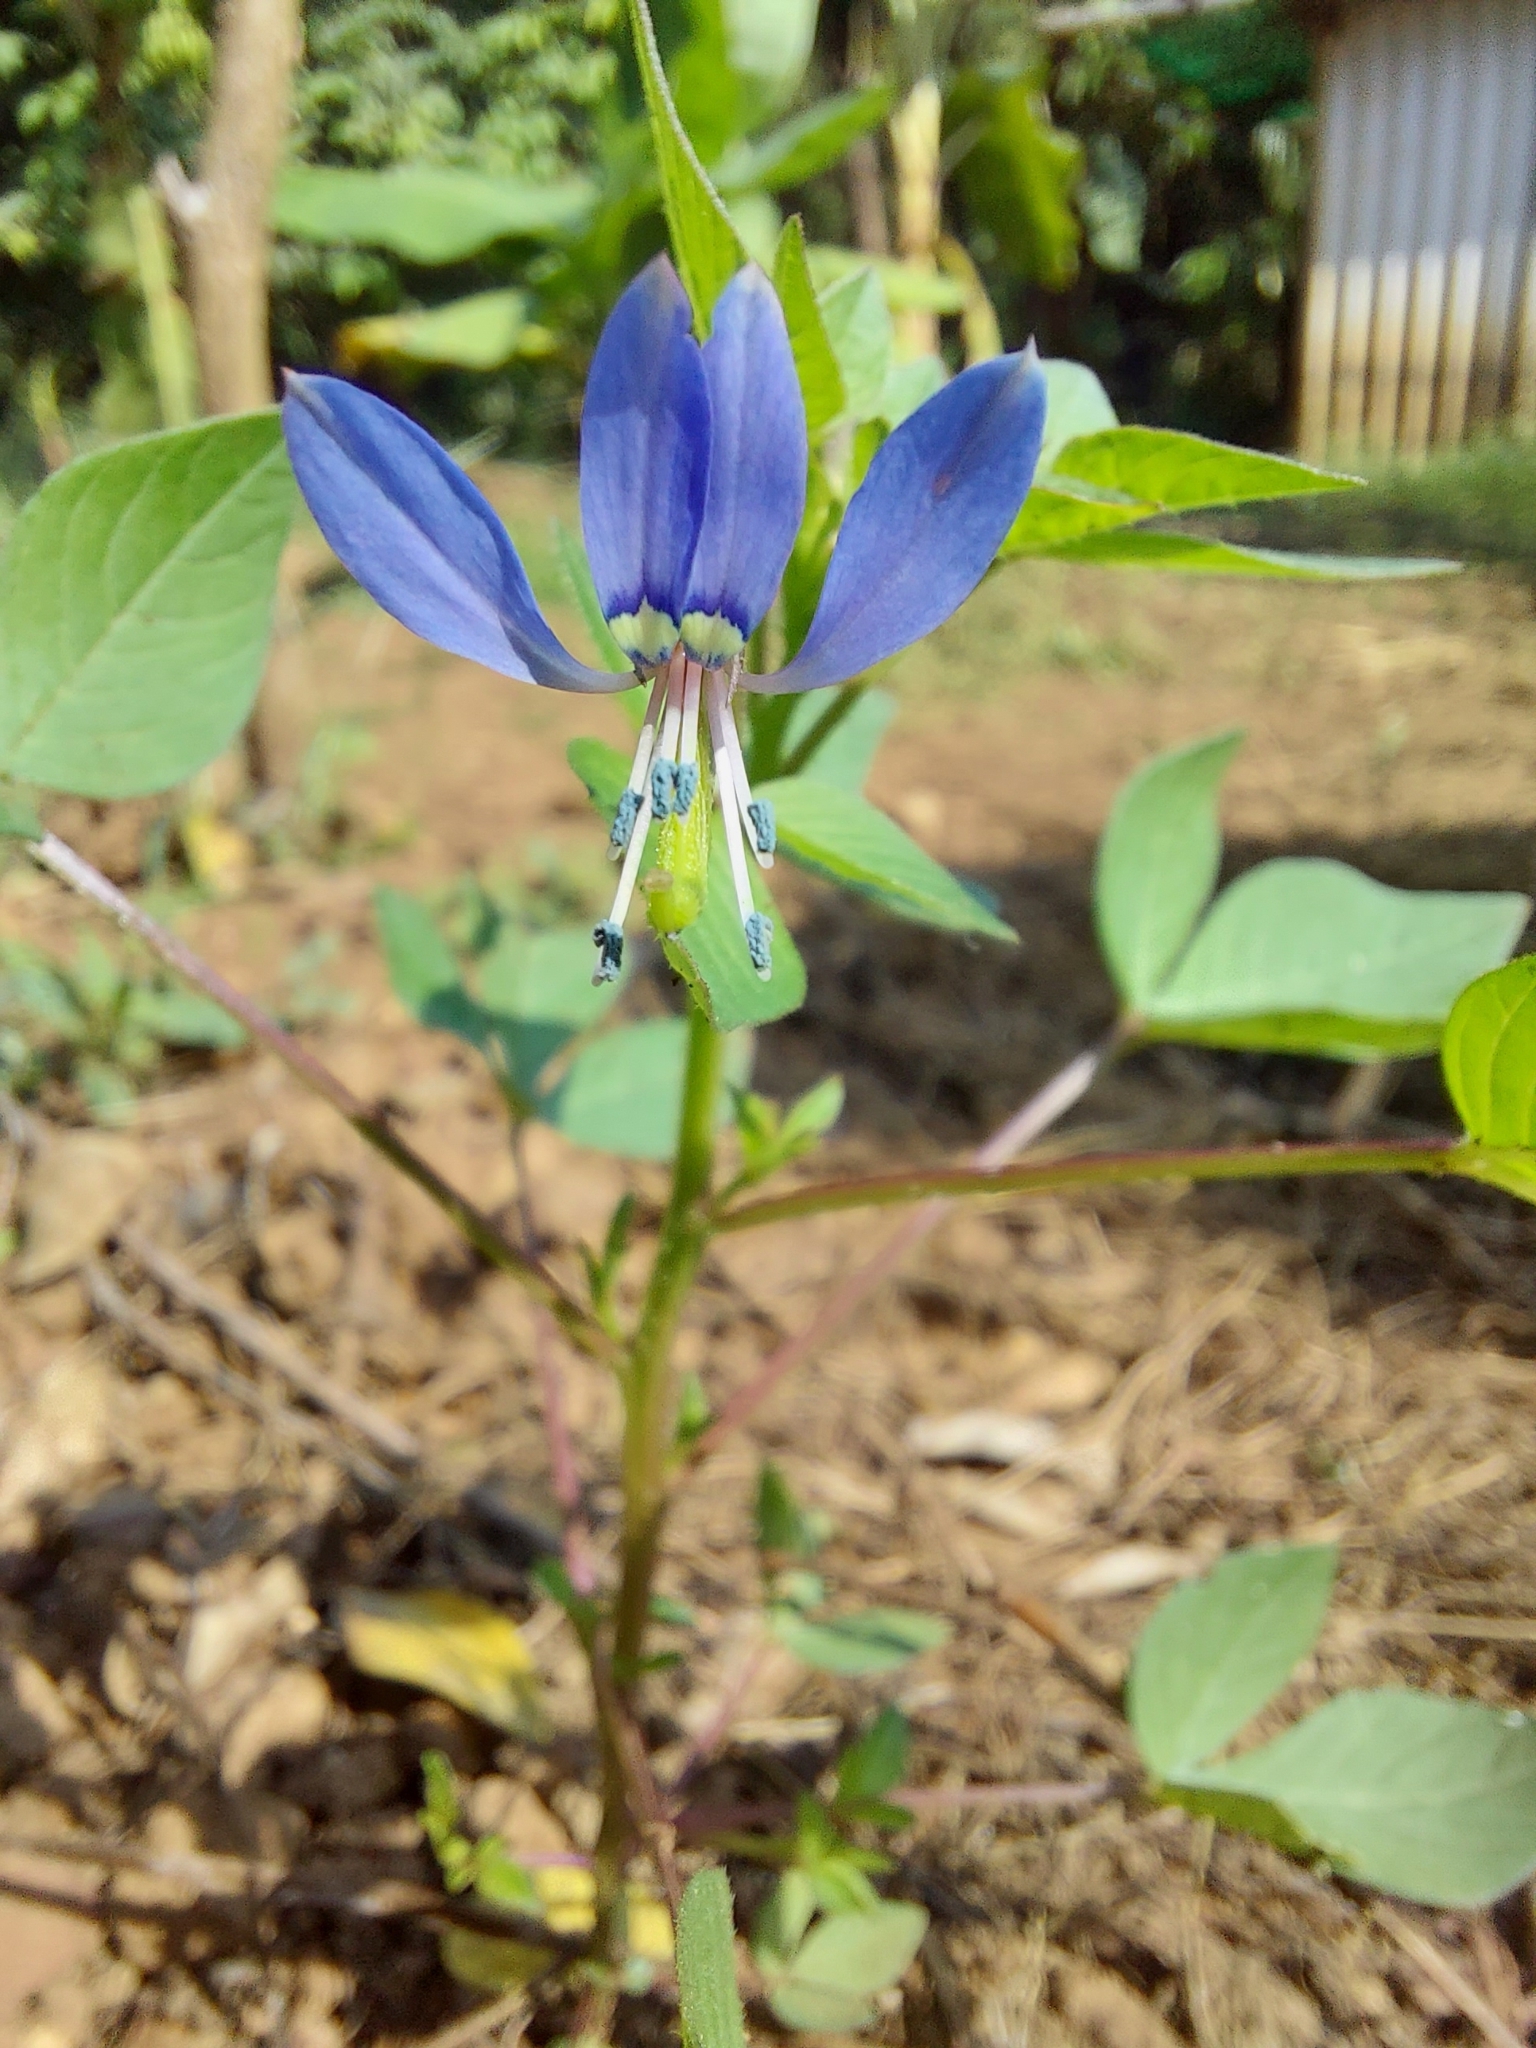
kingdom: Plantae
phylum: Tracheophyta
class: Magnoliopsida
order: Brassicales
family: Cleomaceae
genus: Sieruela
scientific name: Sieruela rutidosperma
